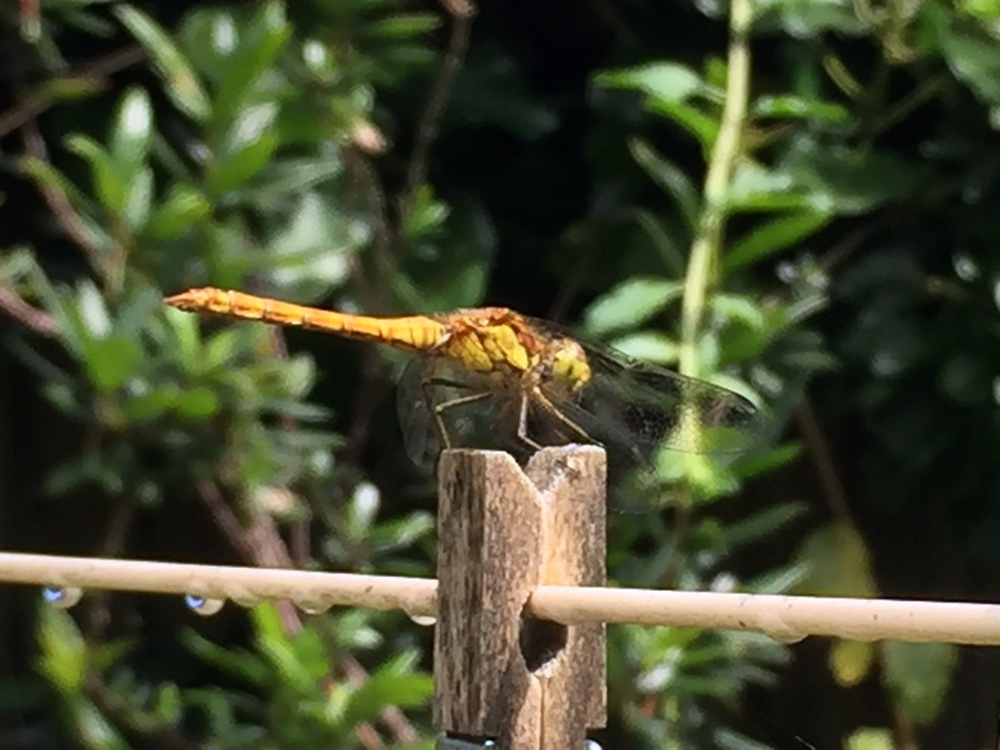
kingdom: Animalia
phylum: Arthropoda
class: Insecta
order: Odonata
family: Libellulidae
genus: Sympetrum
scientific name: Sympetrum striolatum
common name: Common darter
